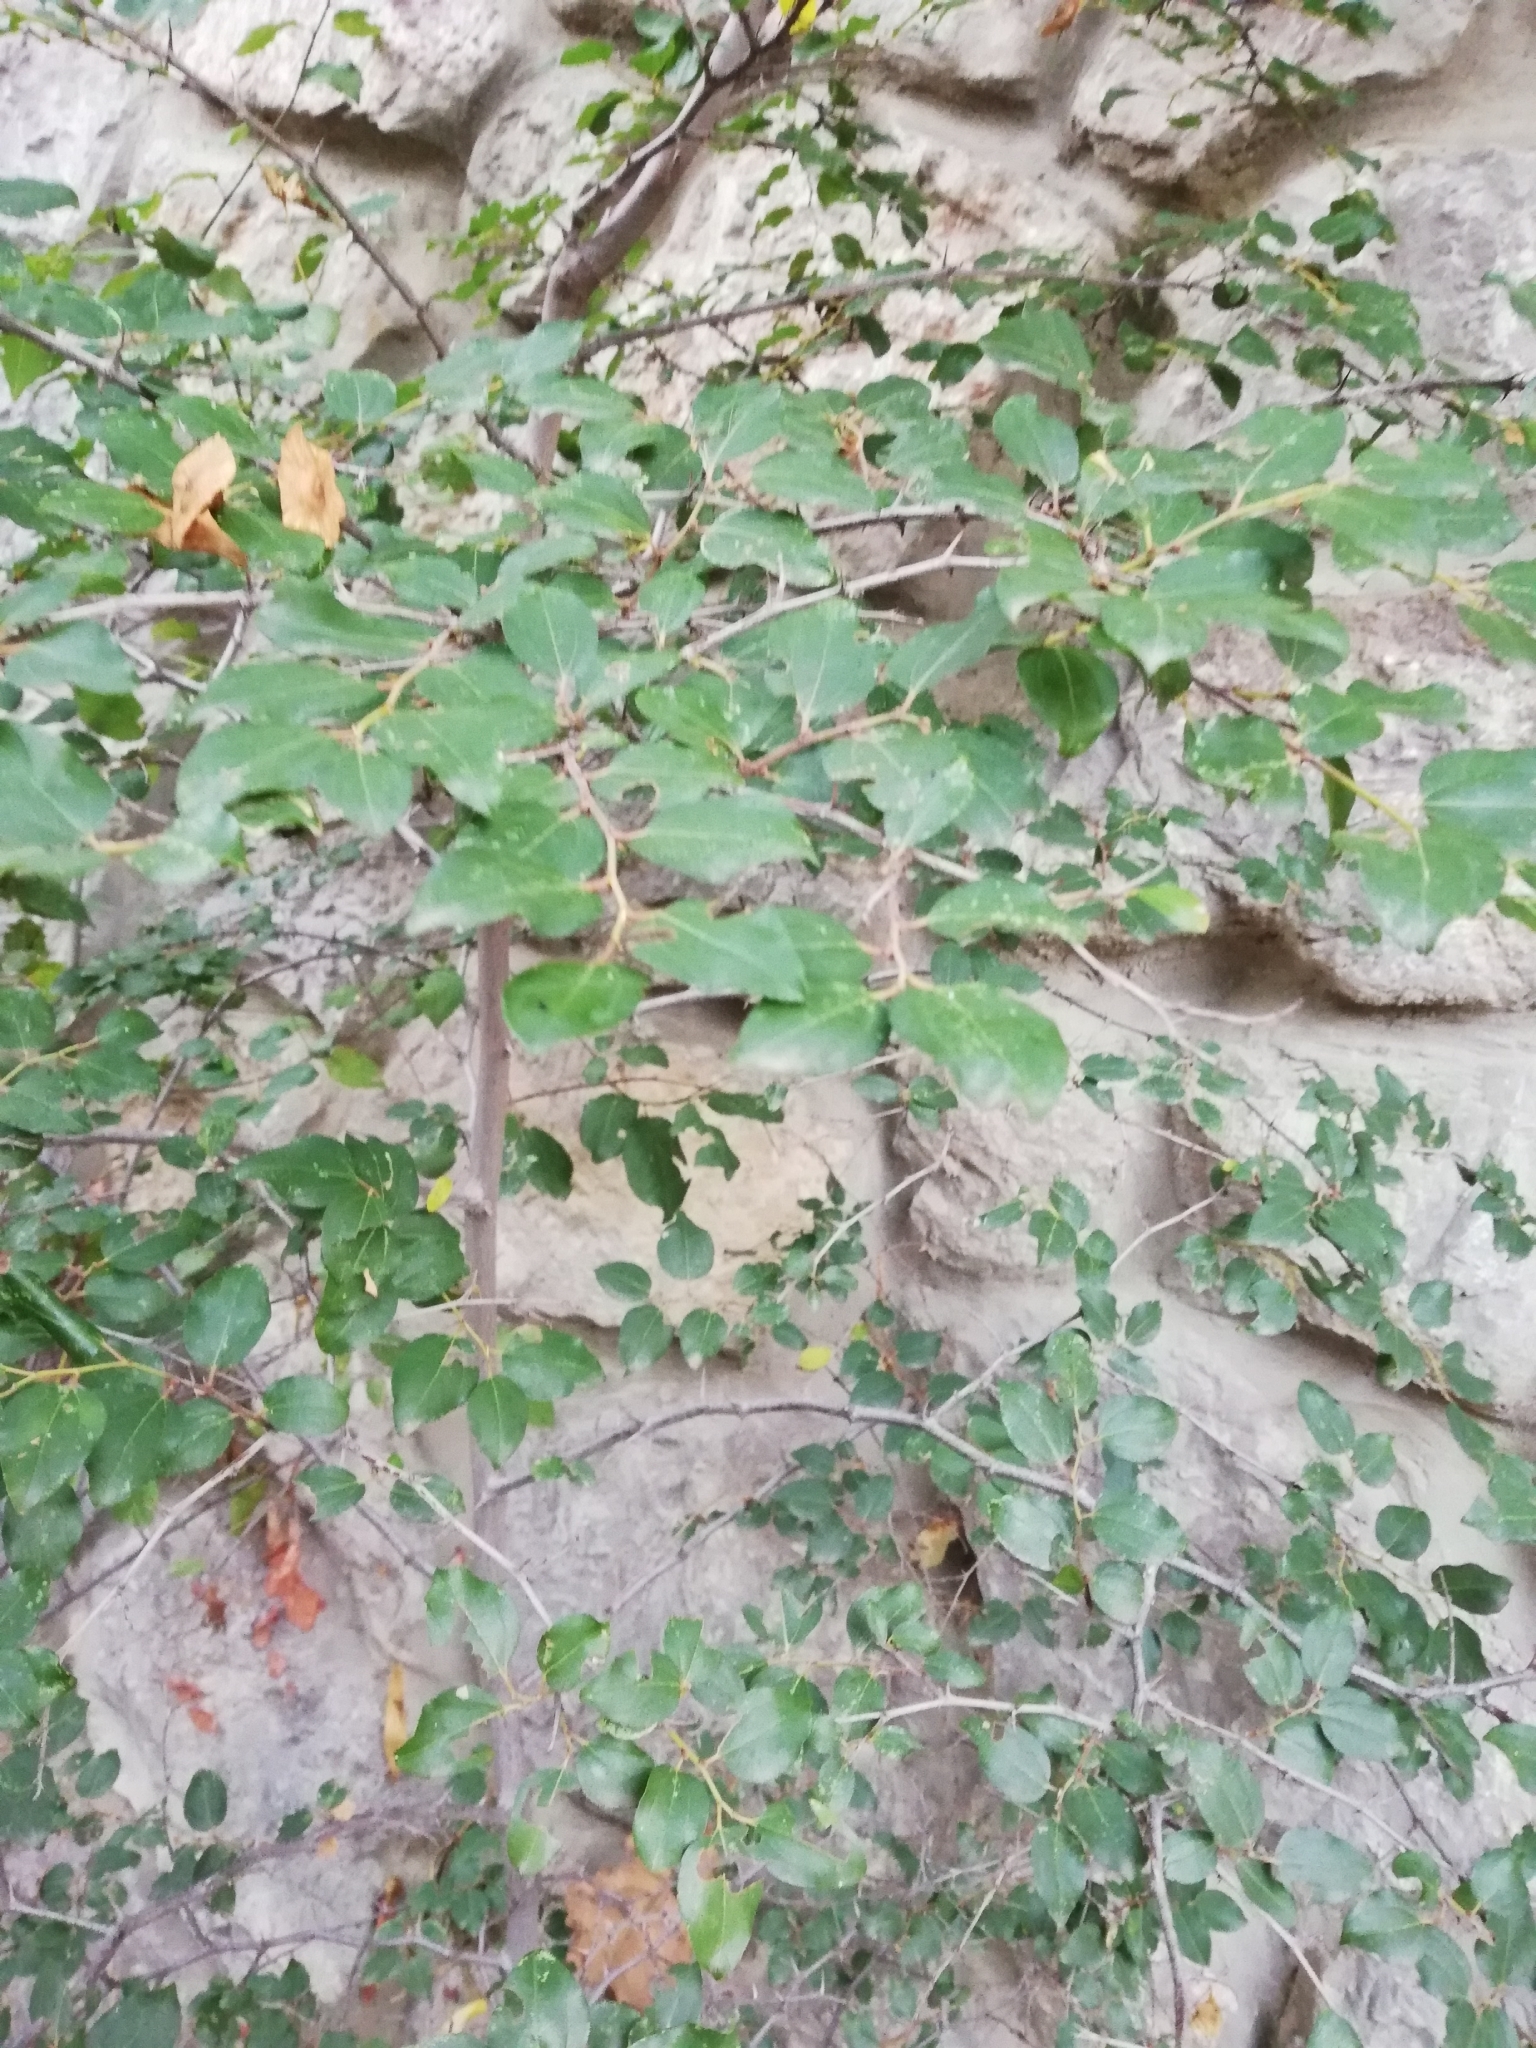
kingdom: Plantae
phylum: Tracheophyta
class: Magnoliopsida
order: Rosales
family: Rhamnaceae
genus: Paliurus
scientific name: Paliurus spina-christi
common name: Jeruselem thorn
